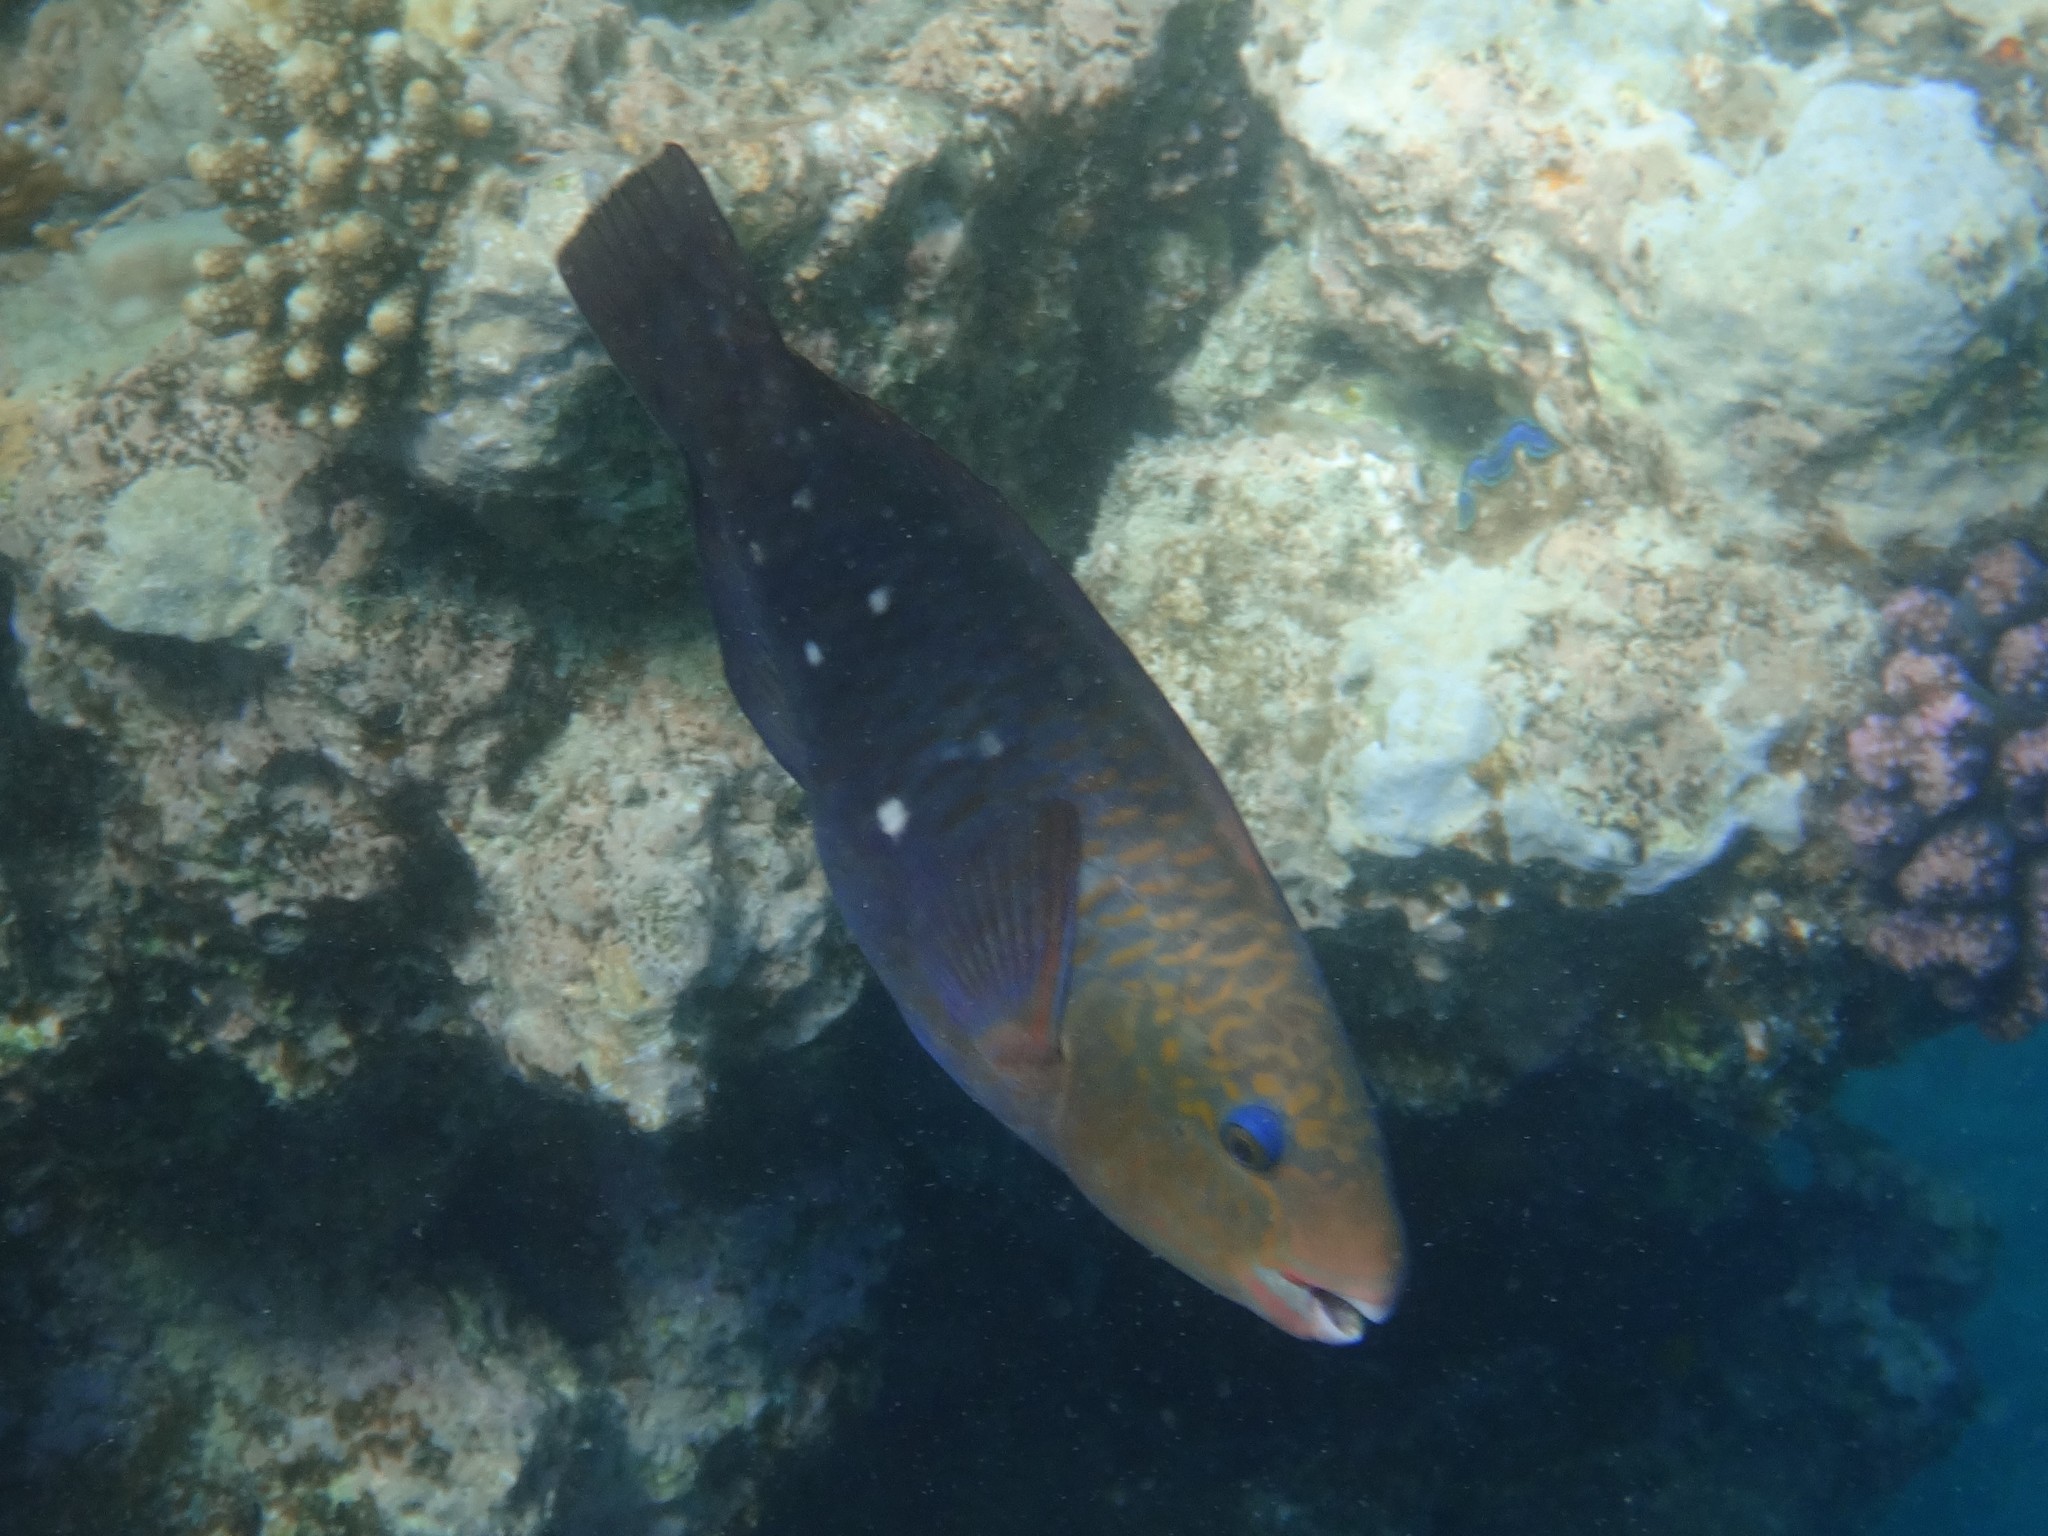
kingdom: Animalia
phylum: Chordata
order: Perciformes
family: Scaridae
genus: Chlorurus
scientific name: Chlorurus sordidus
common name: Bullethead parrotfish
